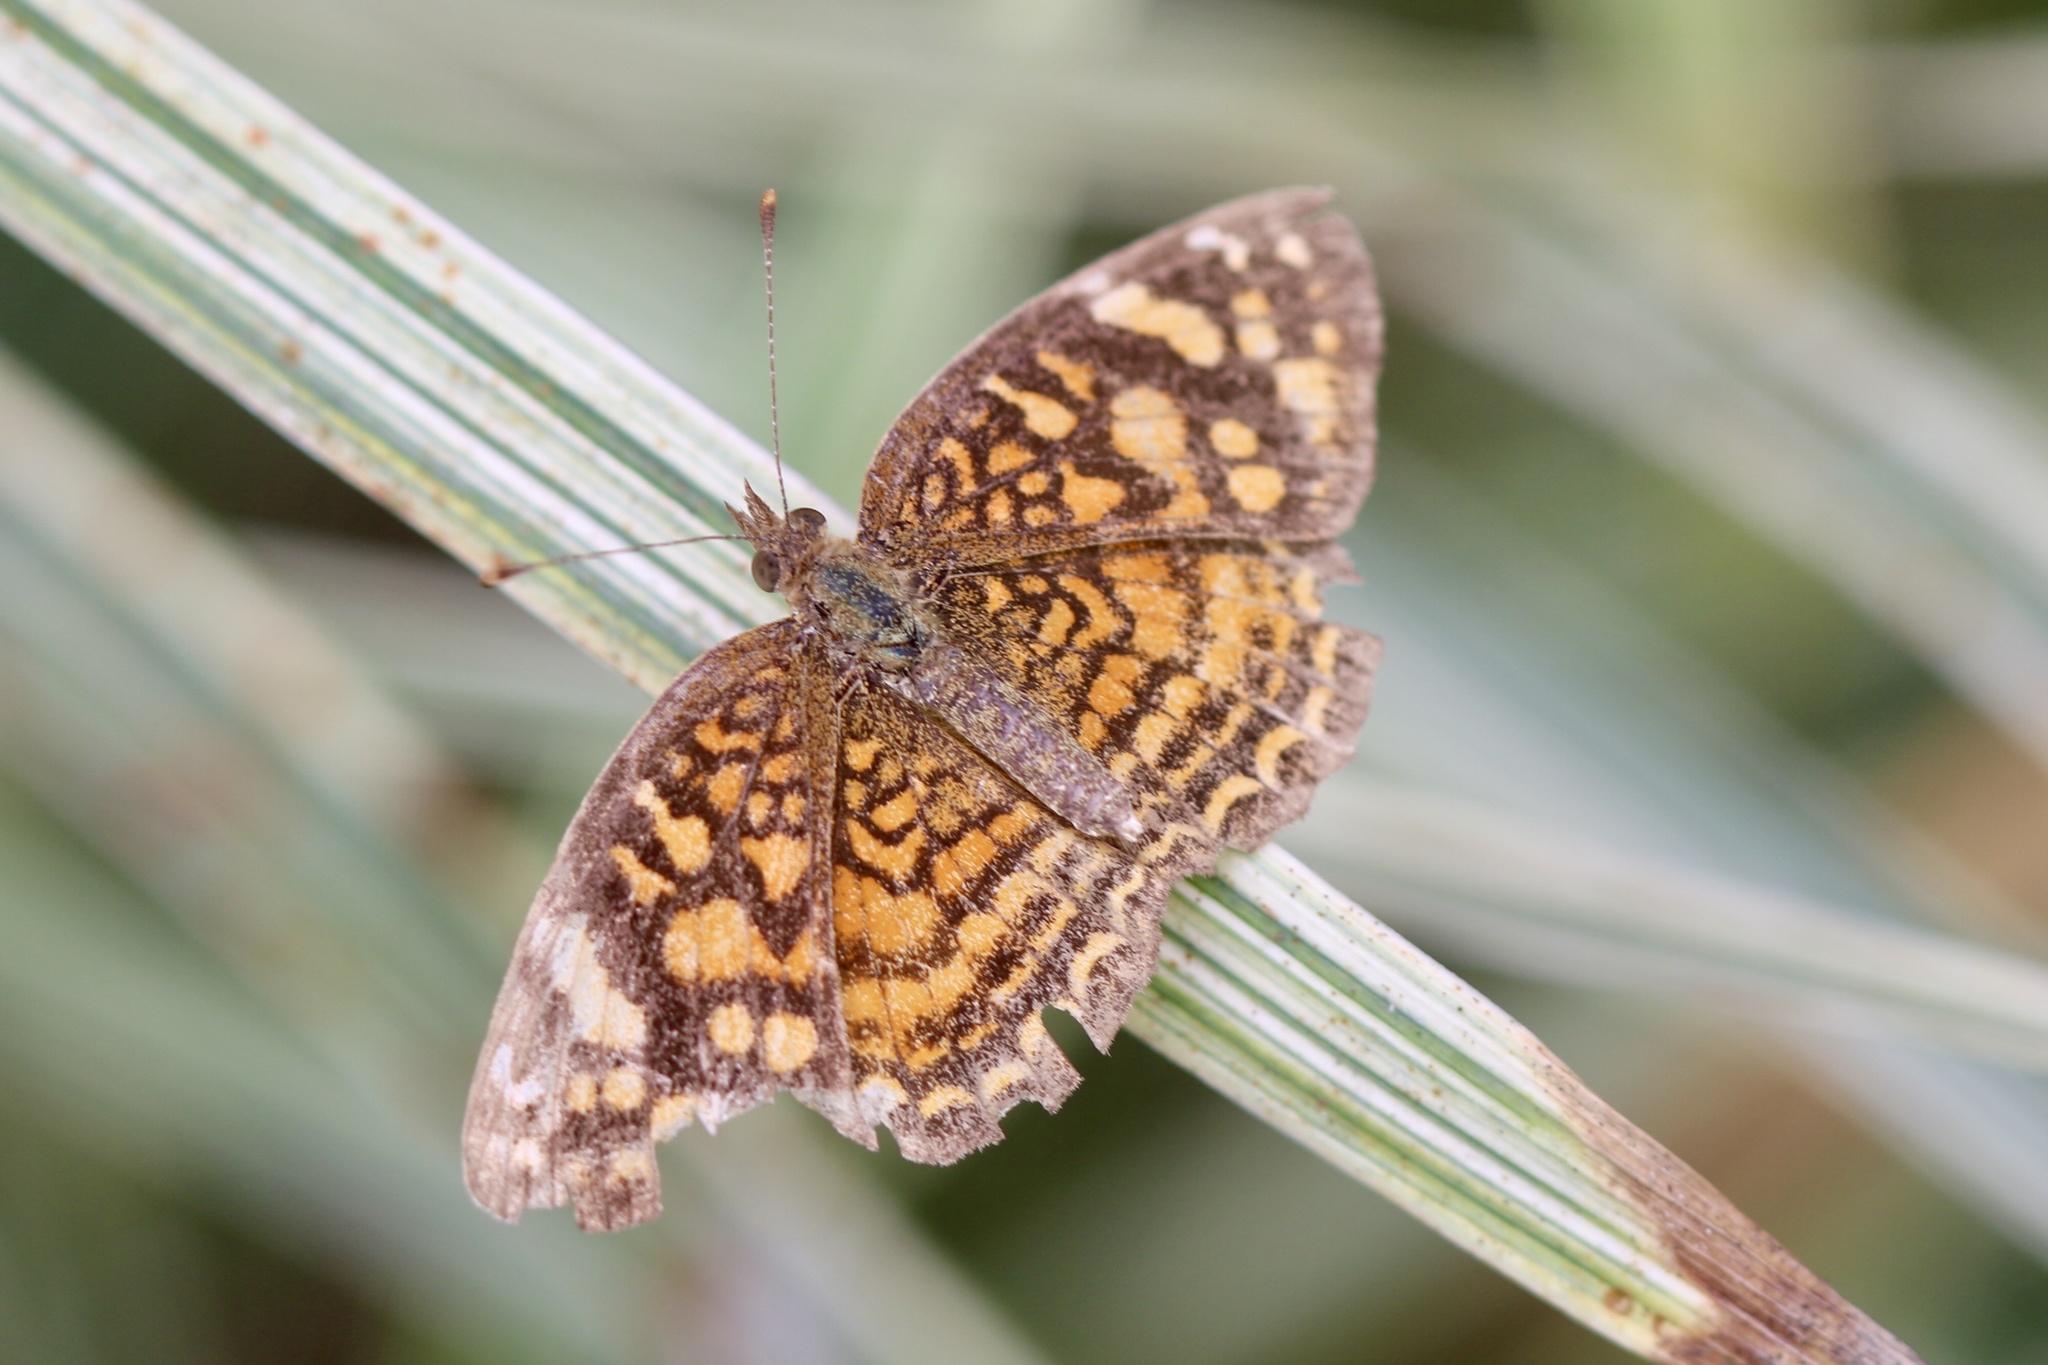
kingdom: Animalia
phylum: Arthropoda
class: Insecta
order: Lepidoptera
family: Nymphalidae
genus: Anthanassa
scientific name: Anthanassa hermas
